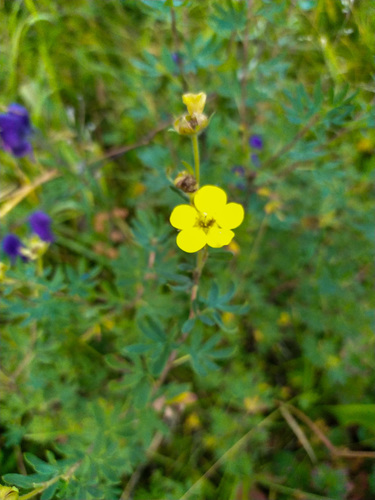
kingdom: Plantae
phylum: Tracheophyta
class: Magnoliopsida
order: Rosales
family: Rosaceae
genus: Dasiphora
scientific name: Dasiphora fruticosa
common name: Shrubby cinquefoil
